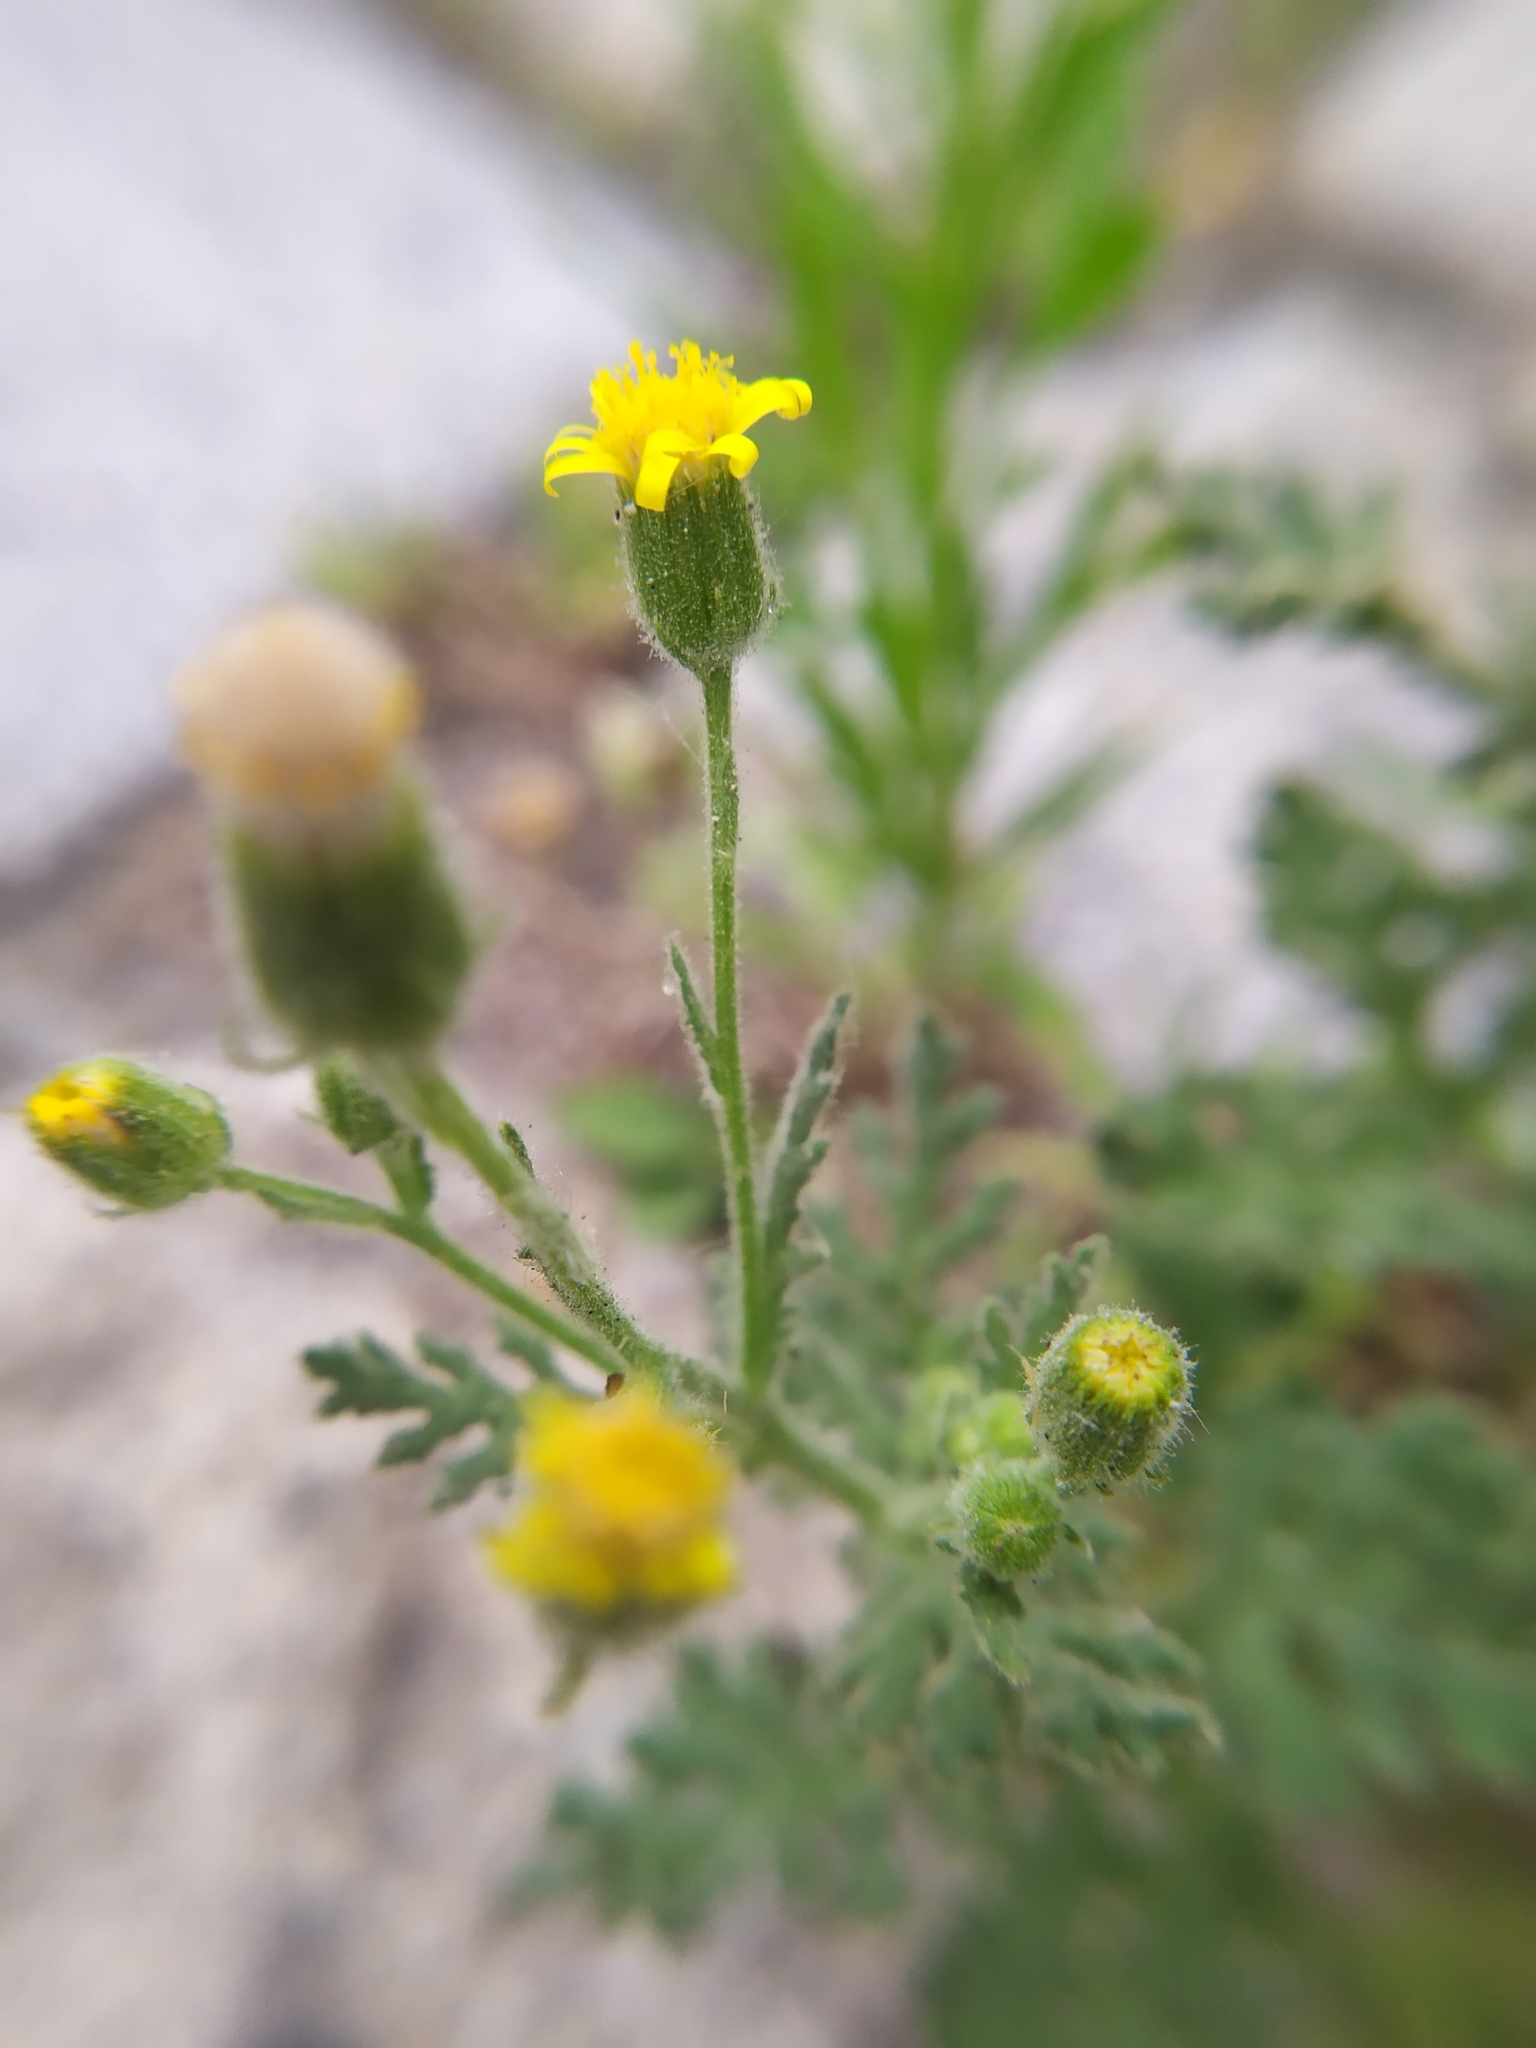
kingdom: Plantae
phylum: Tracheophyta
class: Magnoliopsida
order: Asterales
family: Asteraceae
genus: Senecio
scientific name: Senecio viscosus
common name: Sticky groundsel
